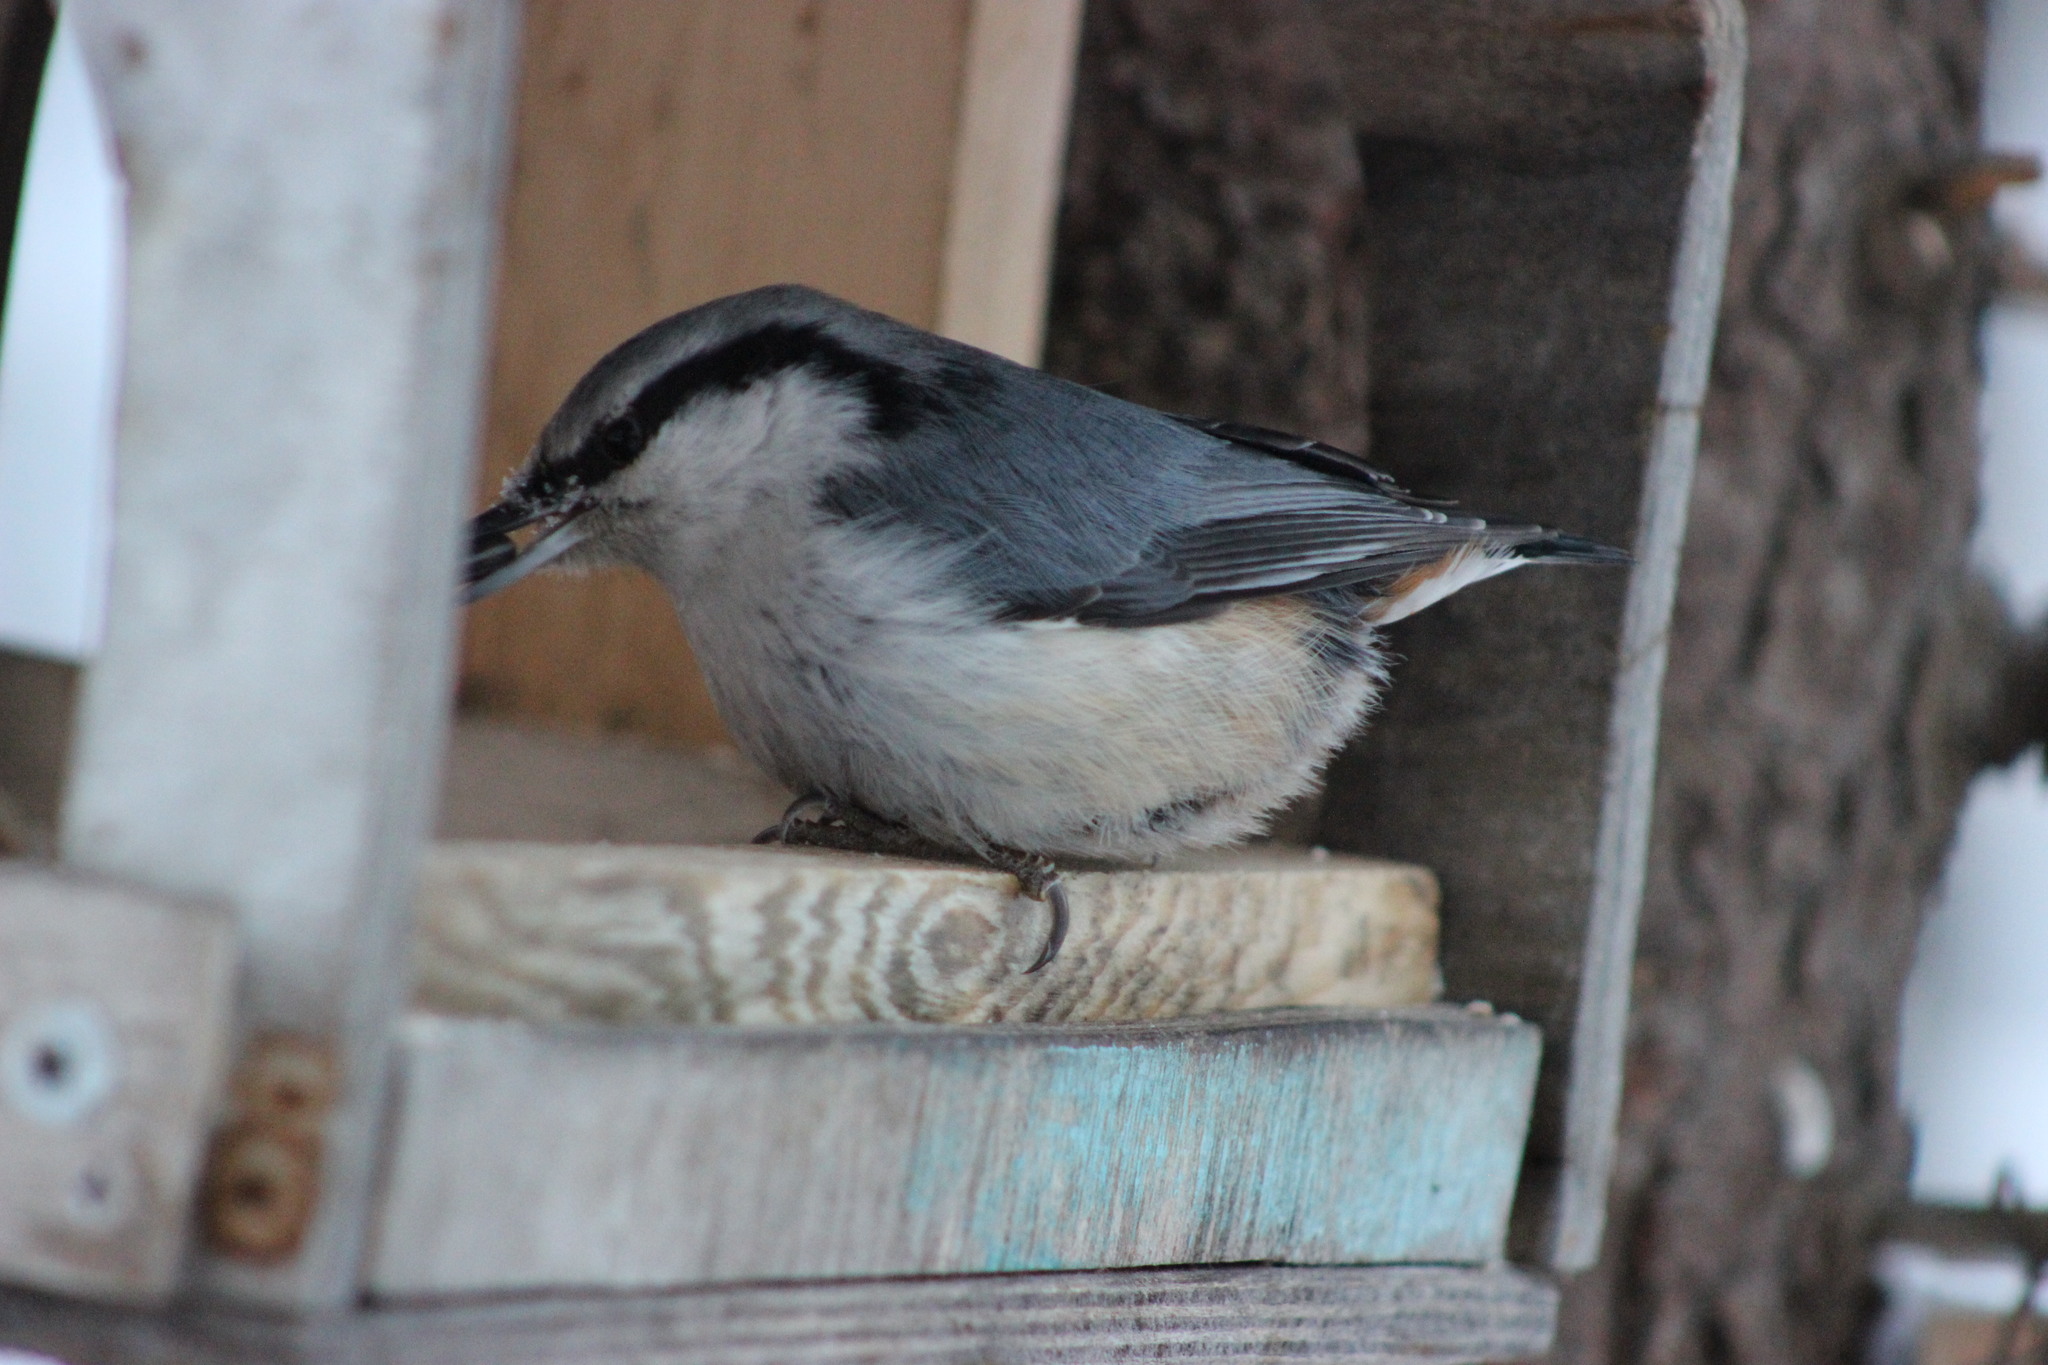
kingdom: Animalia
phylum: Chordata
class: Aves
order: Passeriformes
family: Sittidae
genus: Sitta
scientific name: Sitta europaea
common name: Eurasian nuthatch
